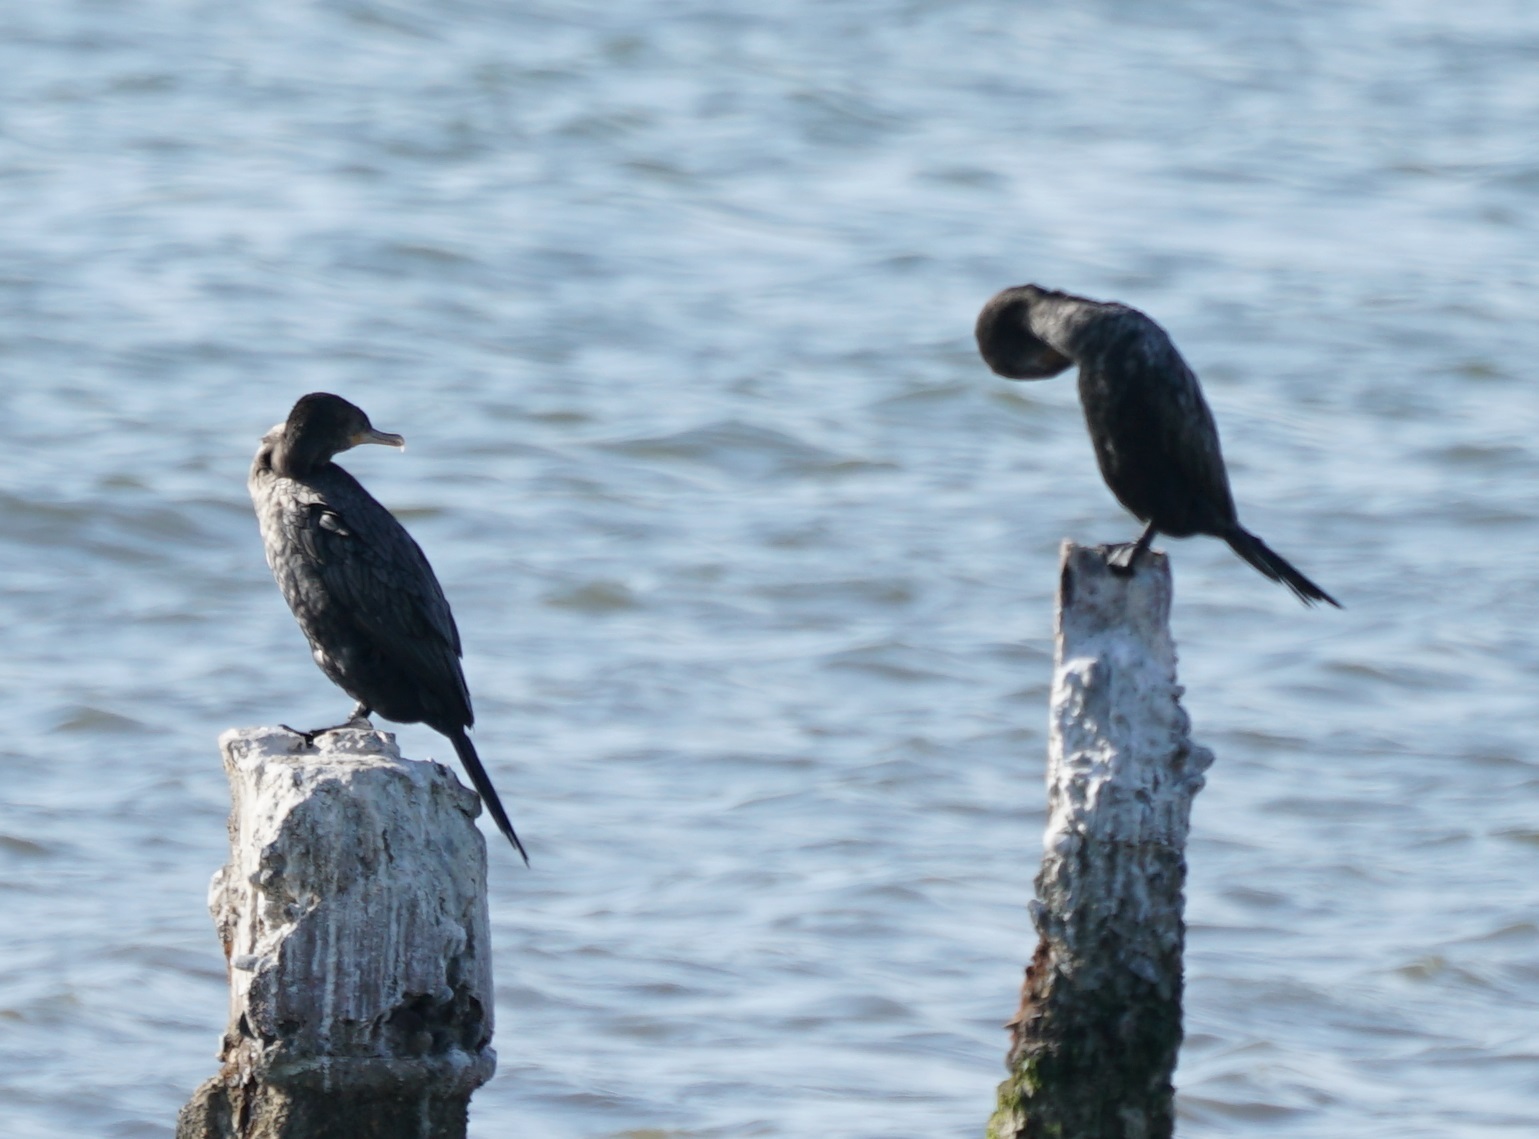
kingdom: Animalia
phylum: Chordata
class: Aves
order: Suliformes
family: Phalacrocoracidae
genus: Phalacrocorax
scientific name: Phalacrocorax brasilianus
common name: Neotropic cormorant
